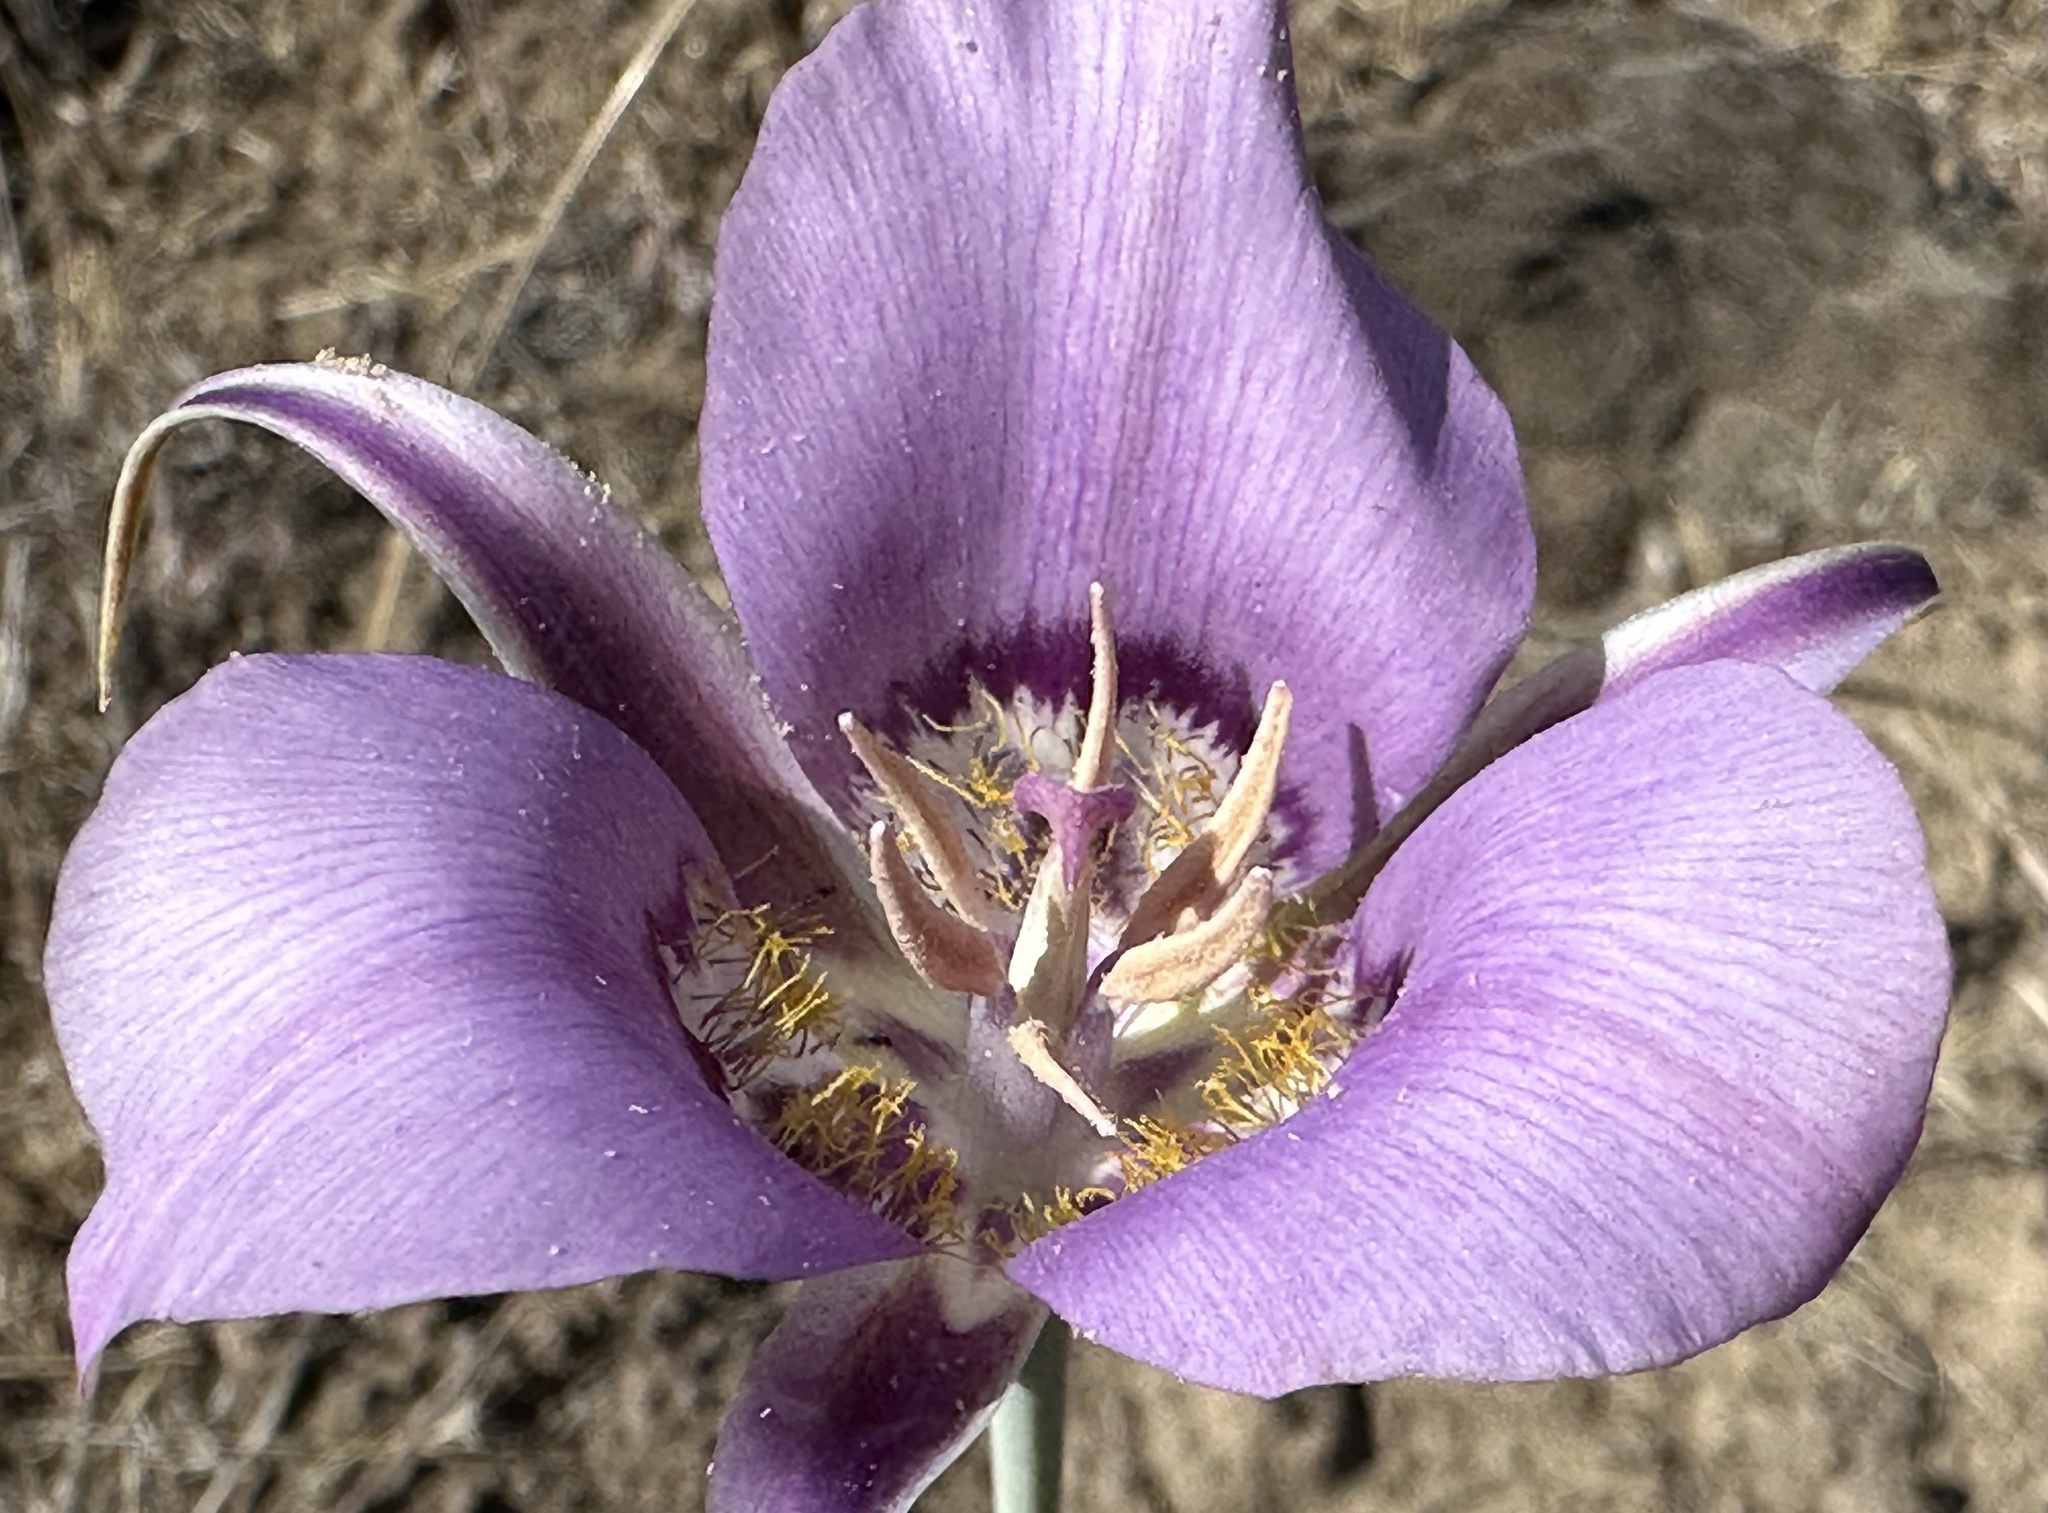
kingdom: Plantae
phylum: Tracheophyta
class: Liliopsida
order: Liliales
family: Liliaceae
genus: Calochortus
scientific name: Calochortus macrocarpus
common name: Green-band mariposa lily
